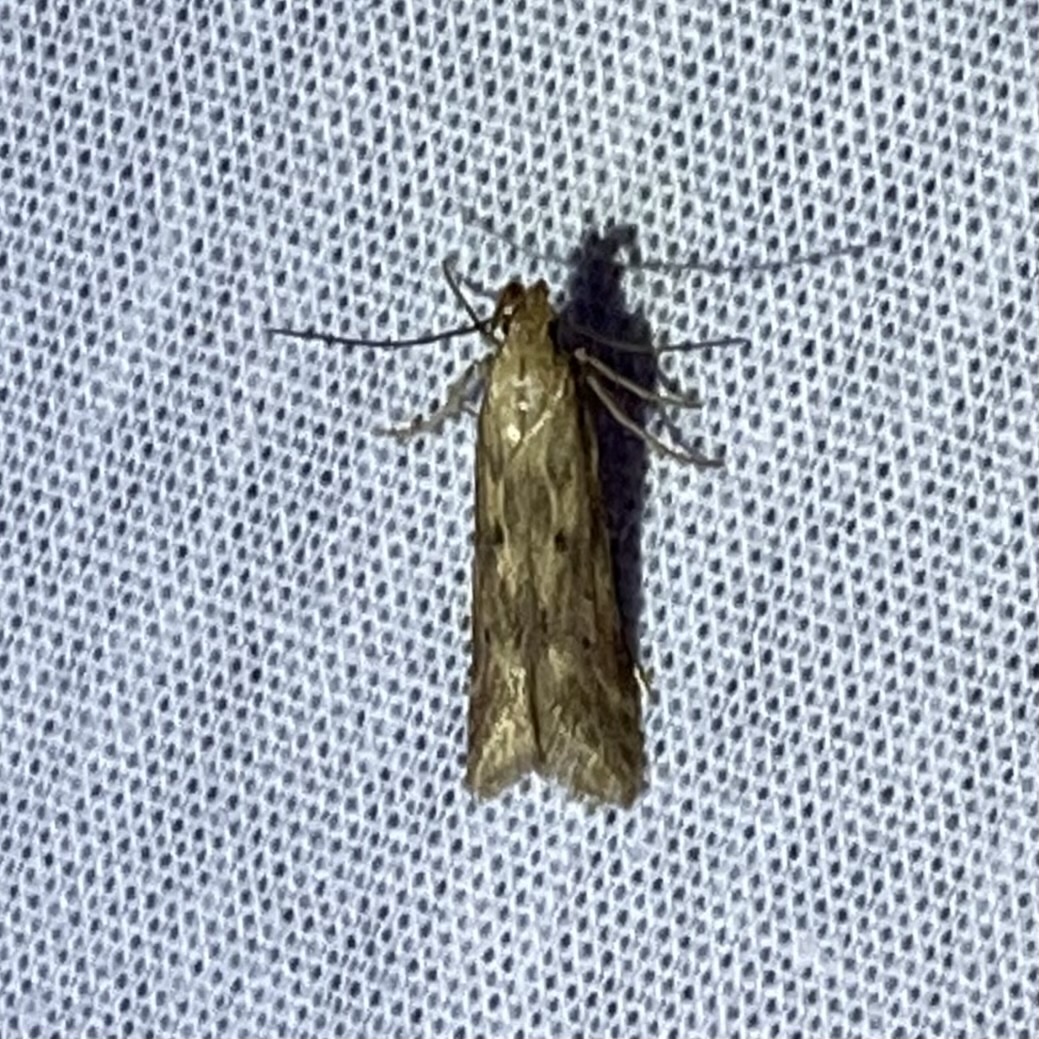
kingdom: Animalia
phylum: Arthropoda
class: Insecta
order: Lepidoptera
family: Gelechiidae
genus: Metzneria
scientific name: Metzneria lappella
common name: Burdock neb
